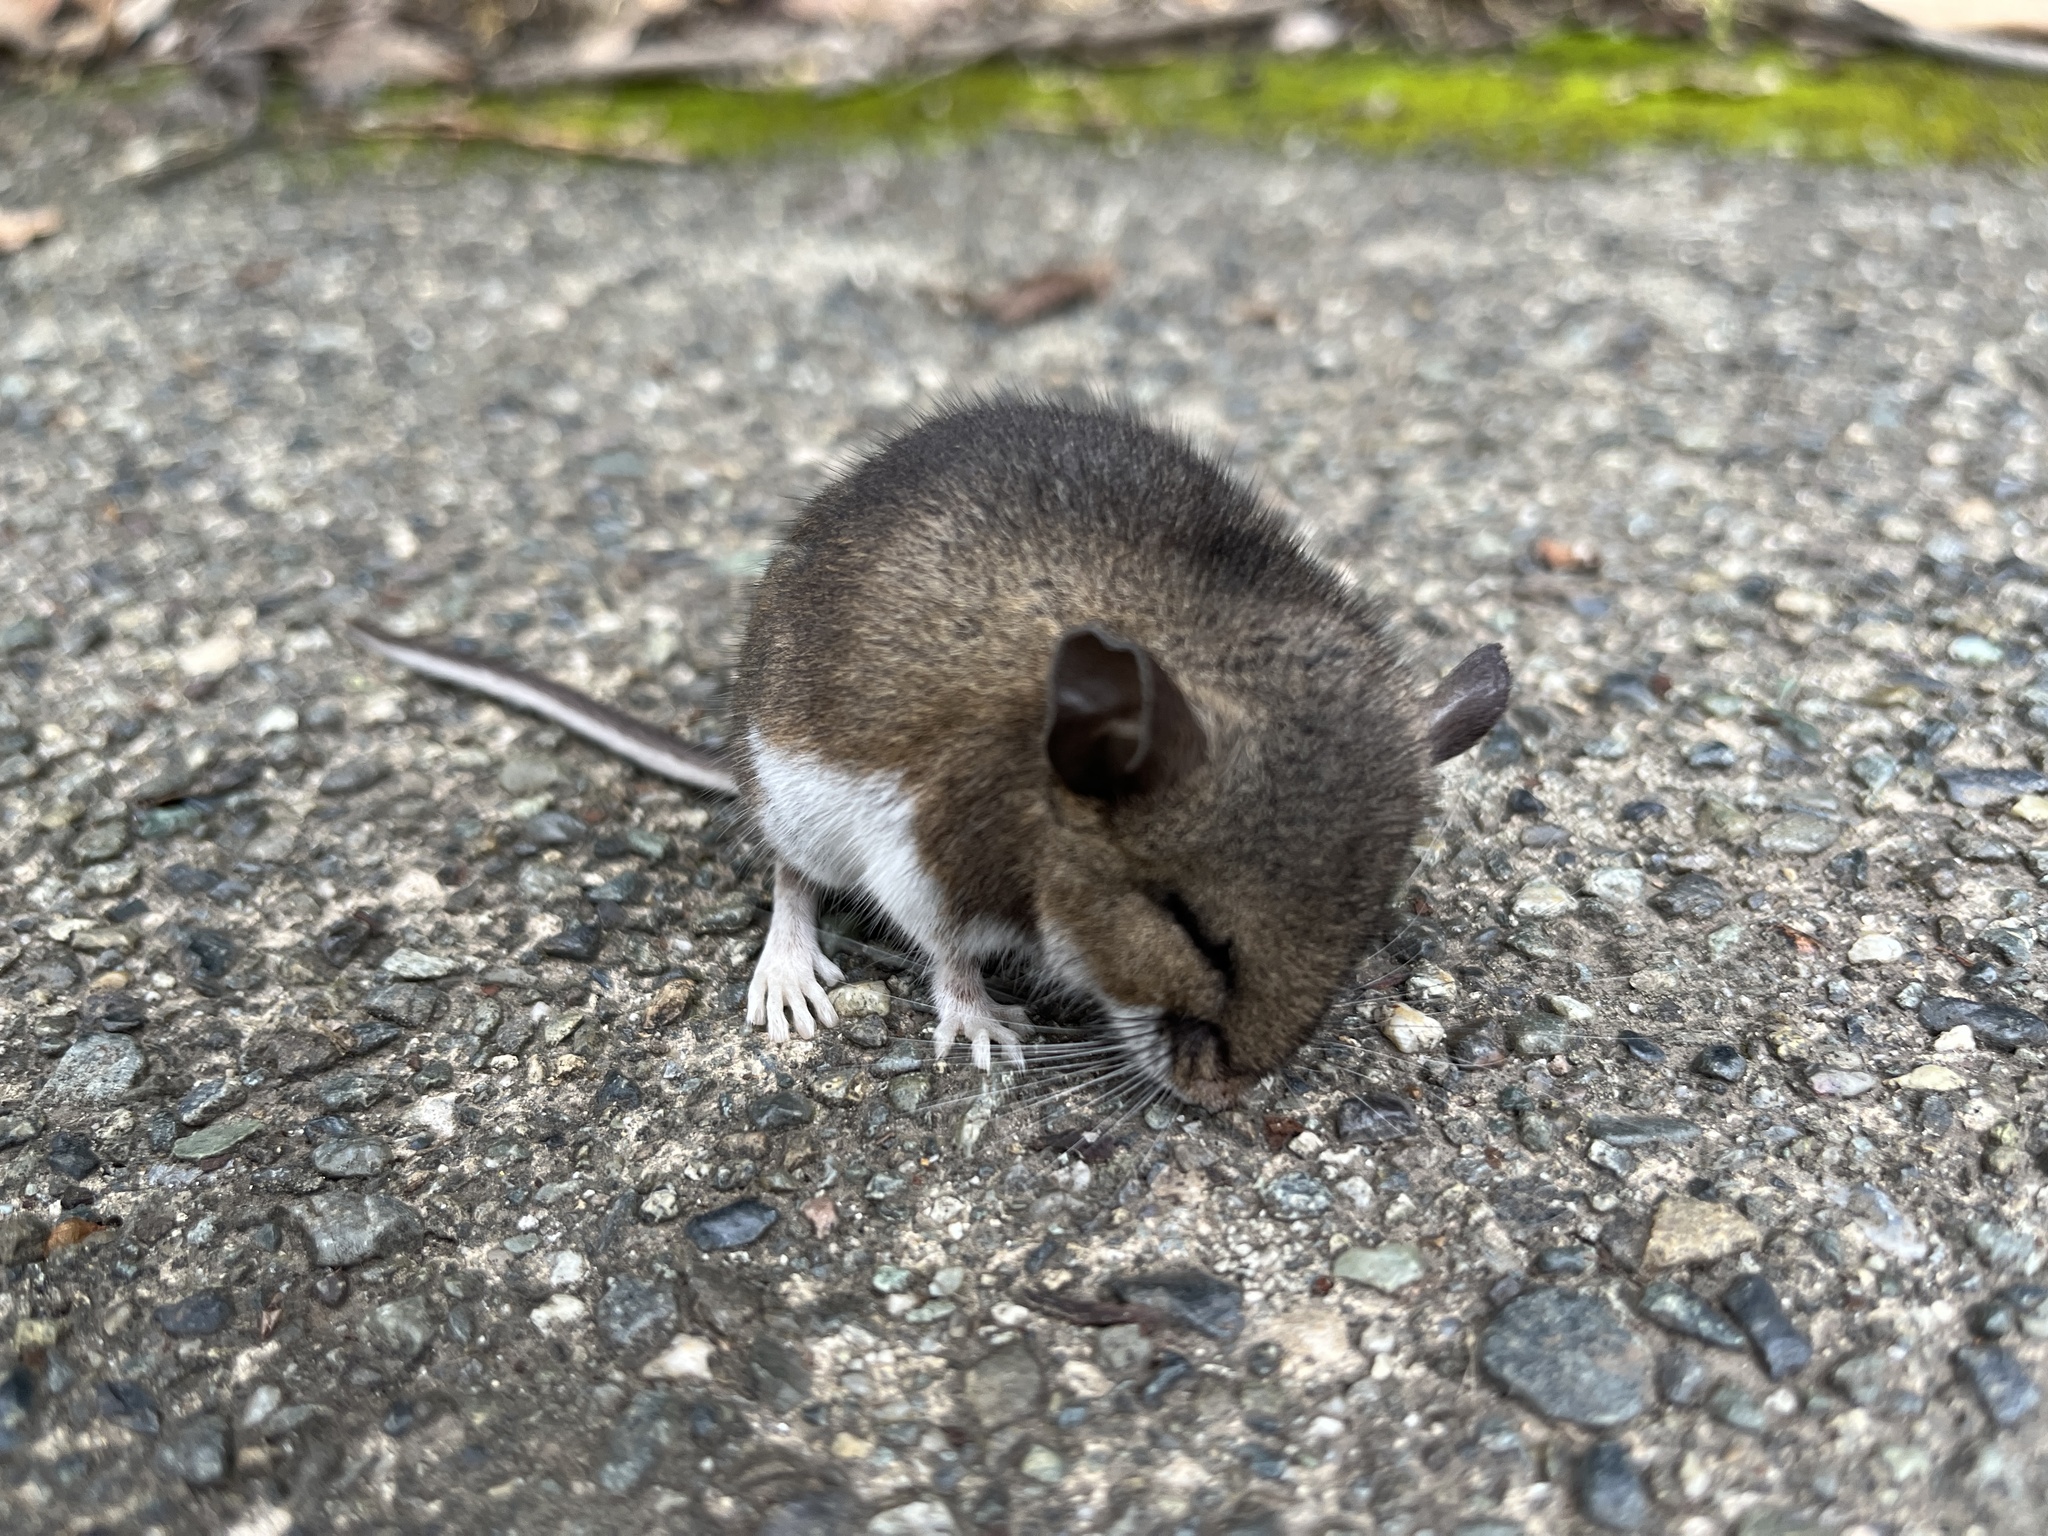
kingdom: Animalia
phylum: Chordata
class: Mammalia
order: Rodentia
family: Cricetidae
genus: Peromyscus
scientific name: Peromyscus maniculatus
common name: Deer mouse
